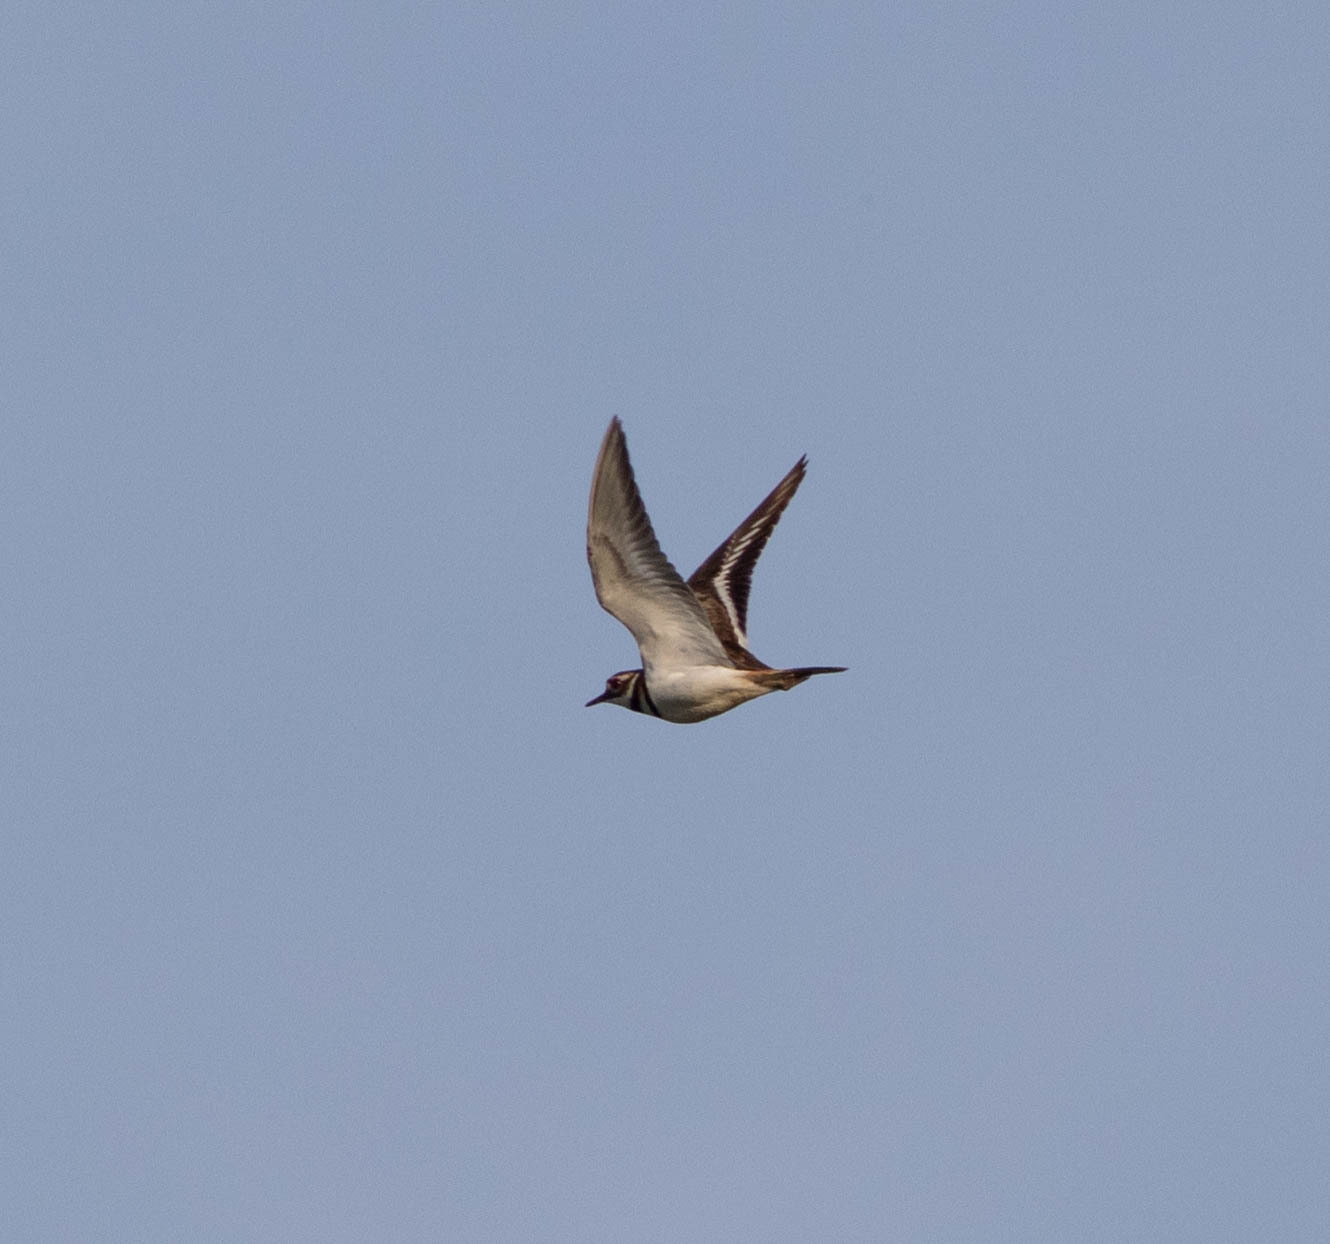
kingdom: Animalia
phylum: Chordata
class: Aves
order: Charadriiformes
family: Charadriidae
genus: Charadrius
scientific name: Charadrius vociferus
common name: Killdeer
